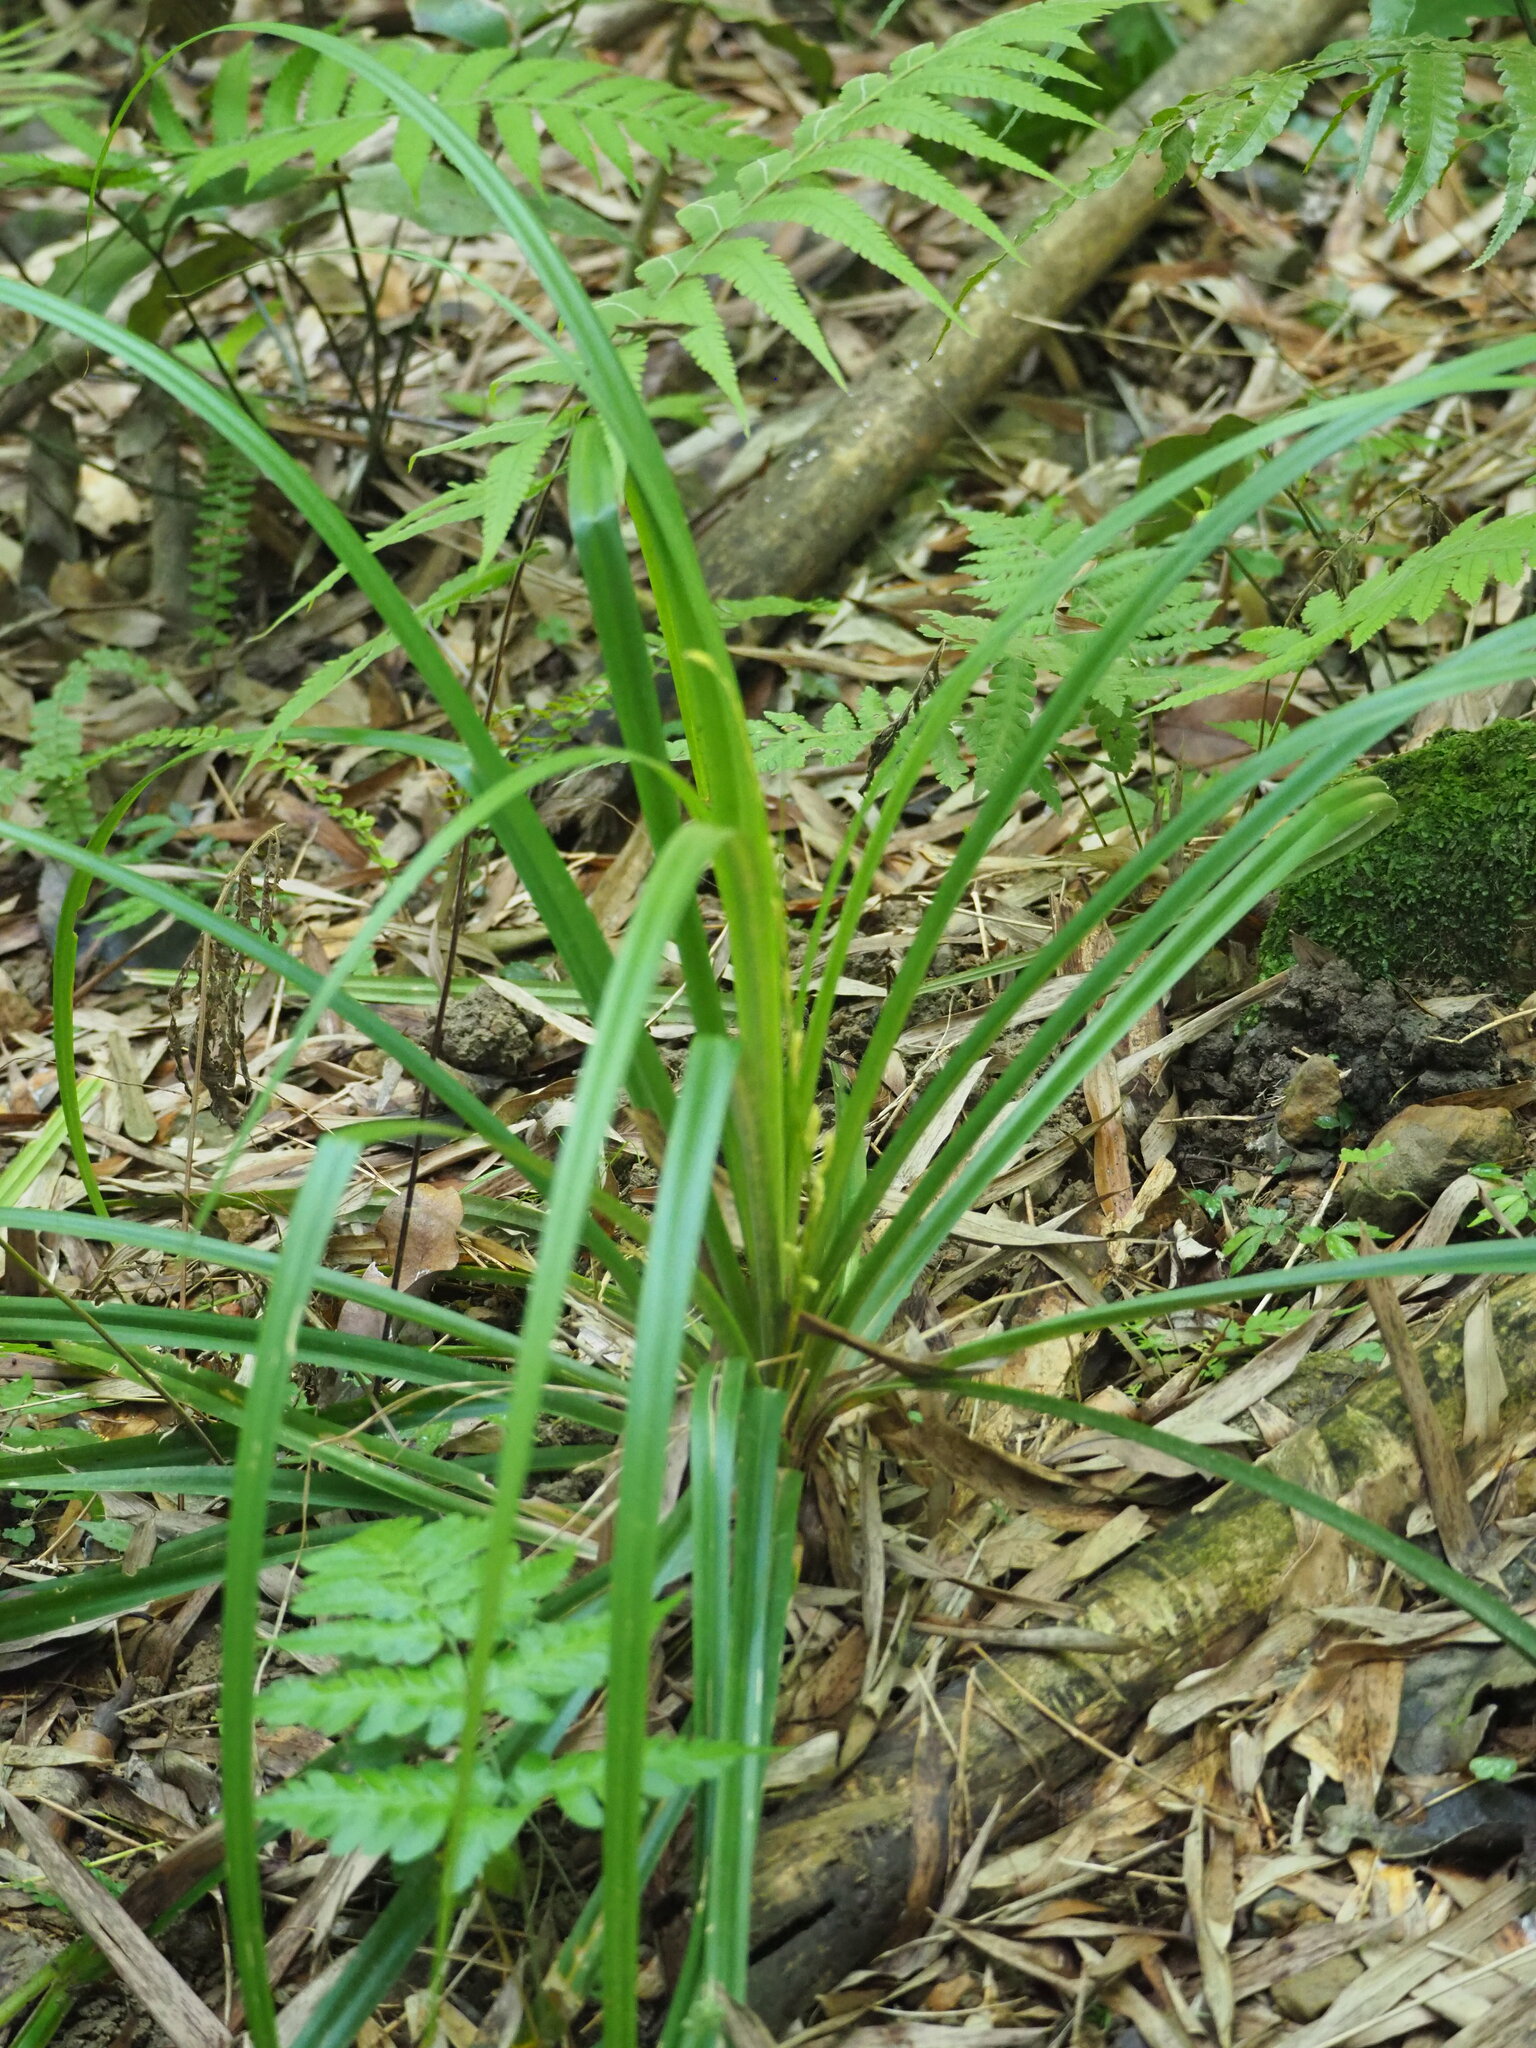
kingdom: Plantae
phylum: Tracheophyta
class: Liliopsida
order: Poales
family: Cyperaceae
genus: Carex
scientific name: Carex cryptostachys
